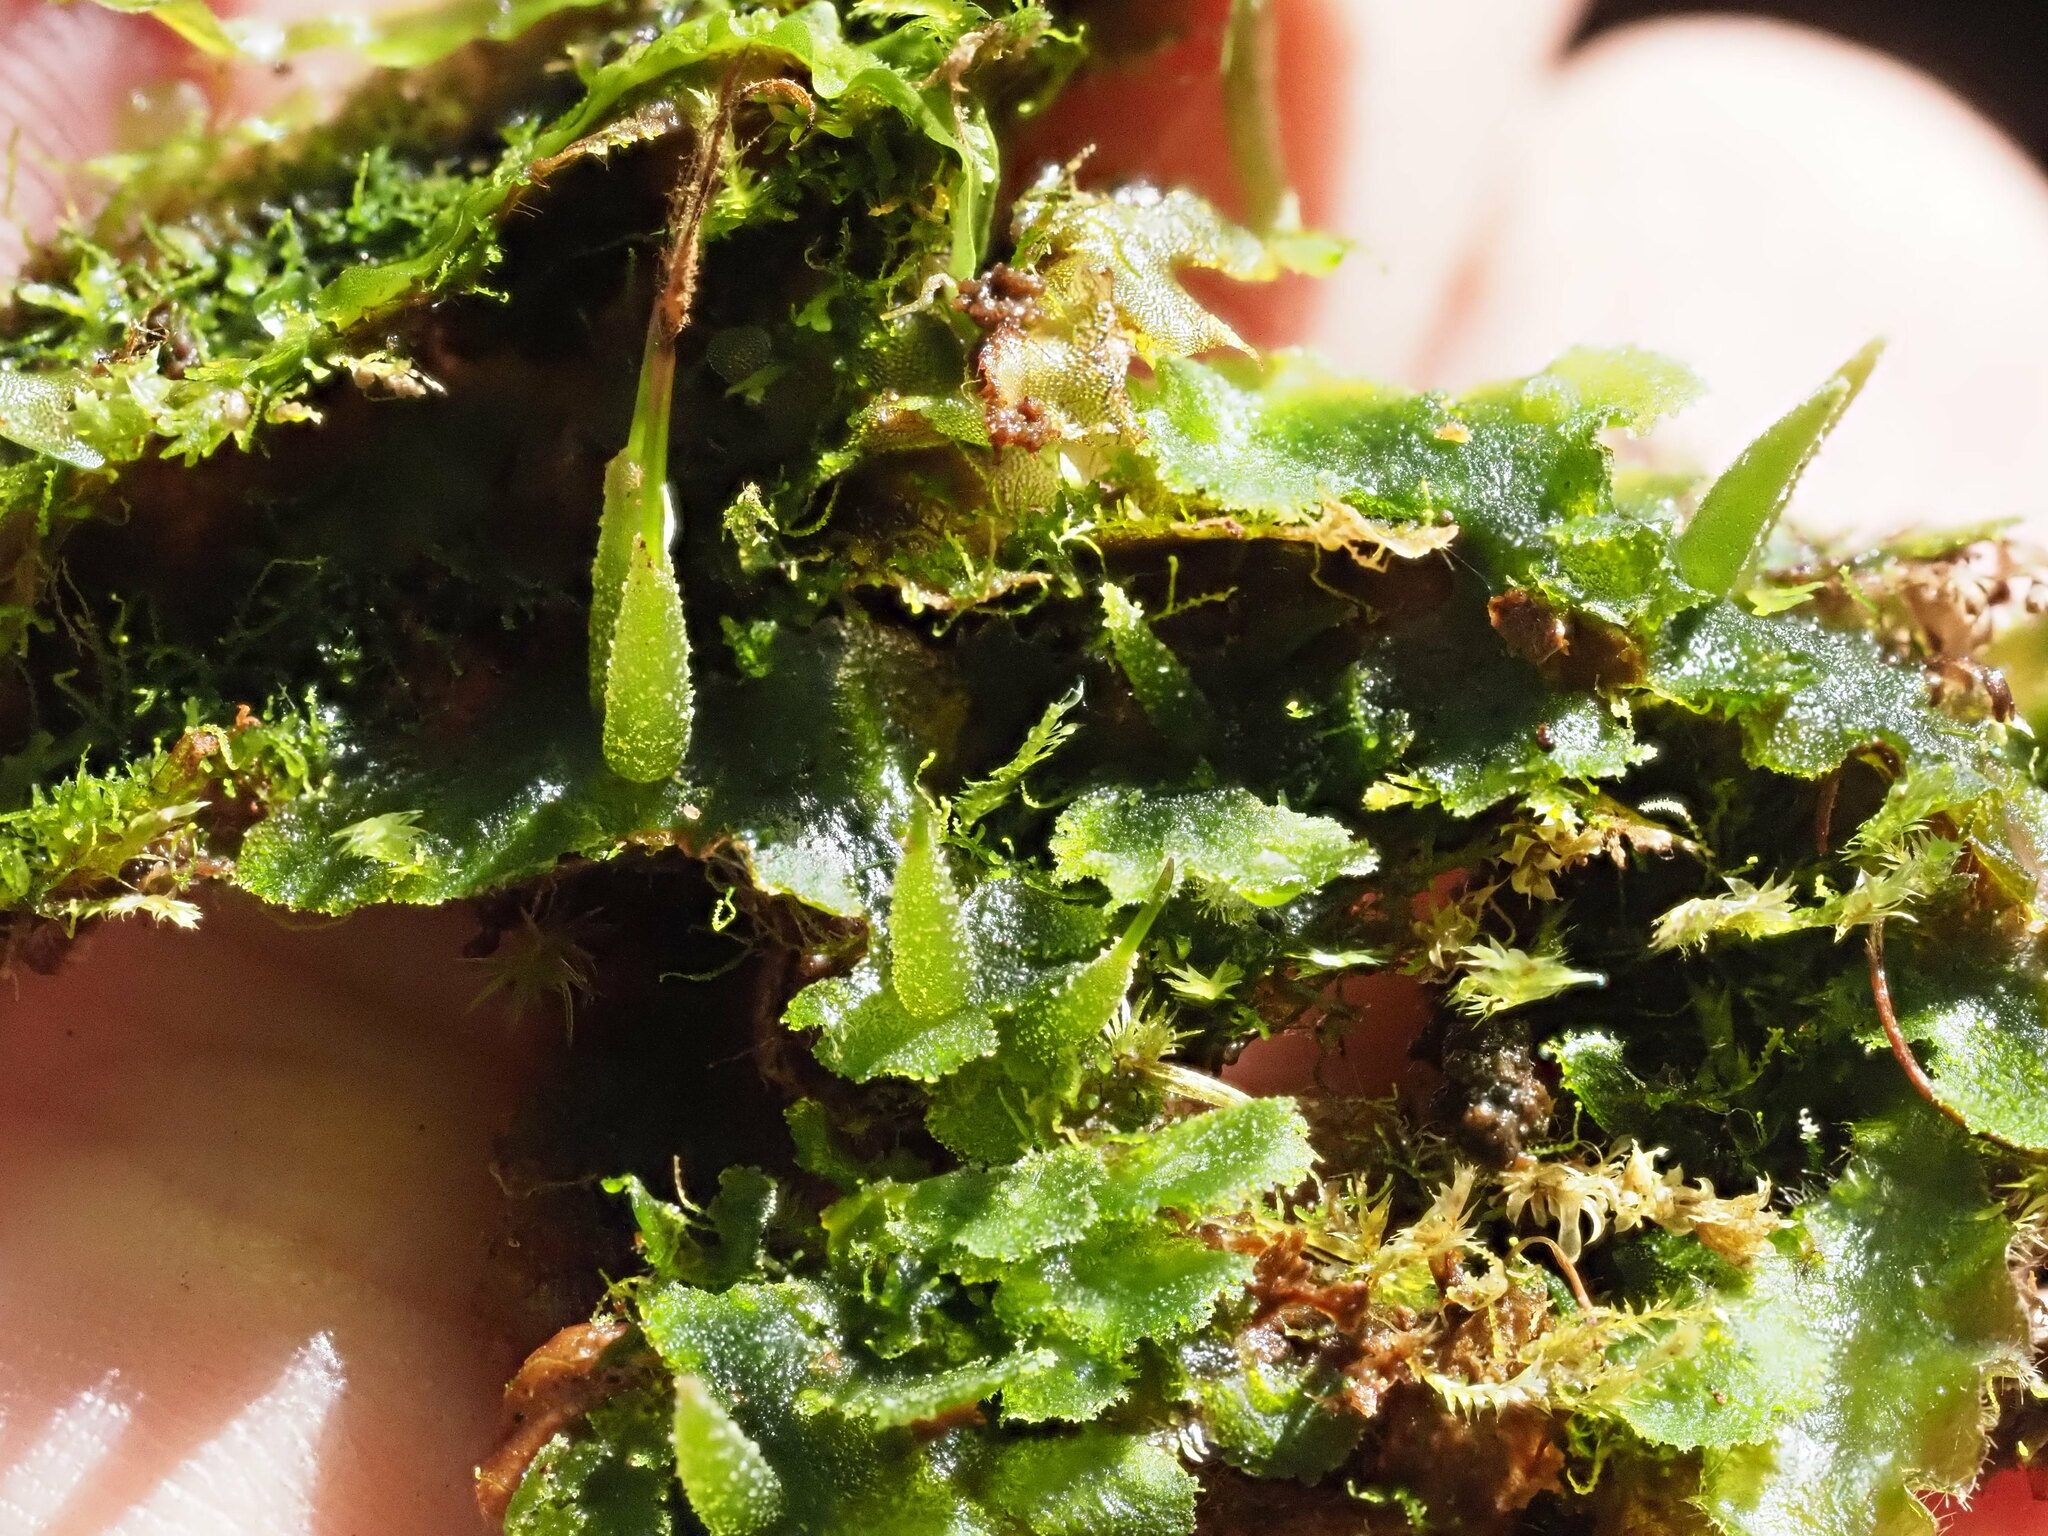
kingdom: Plantae
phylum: Anthocerotophyta
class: Anthocerotopsida
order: Dendrocerotales
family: Dendrocerotaceae
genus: Megaceros
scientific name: Megaceros flagellaris
